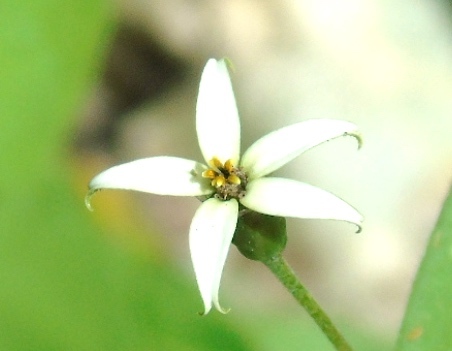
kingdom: Plantae
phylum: Tracheophyta
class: Magnoliopsida
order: Asterales
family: Asteraceae
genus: Zinnia
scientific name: Zinnia zinnioides
